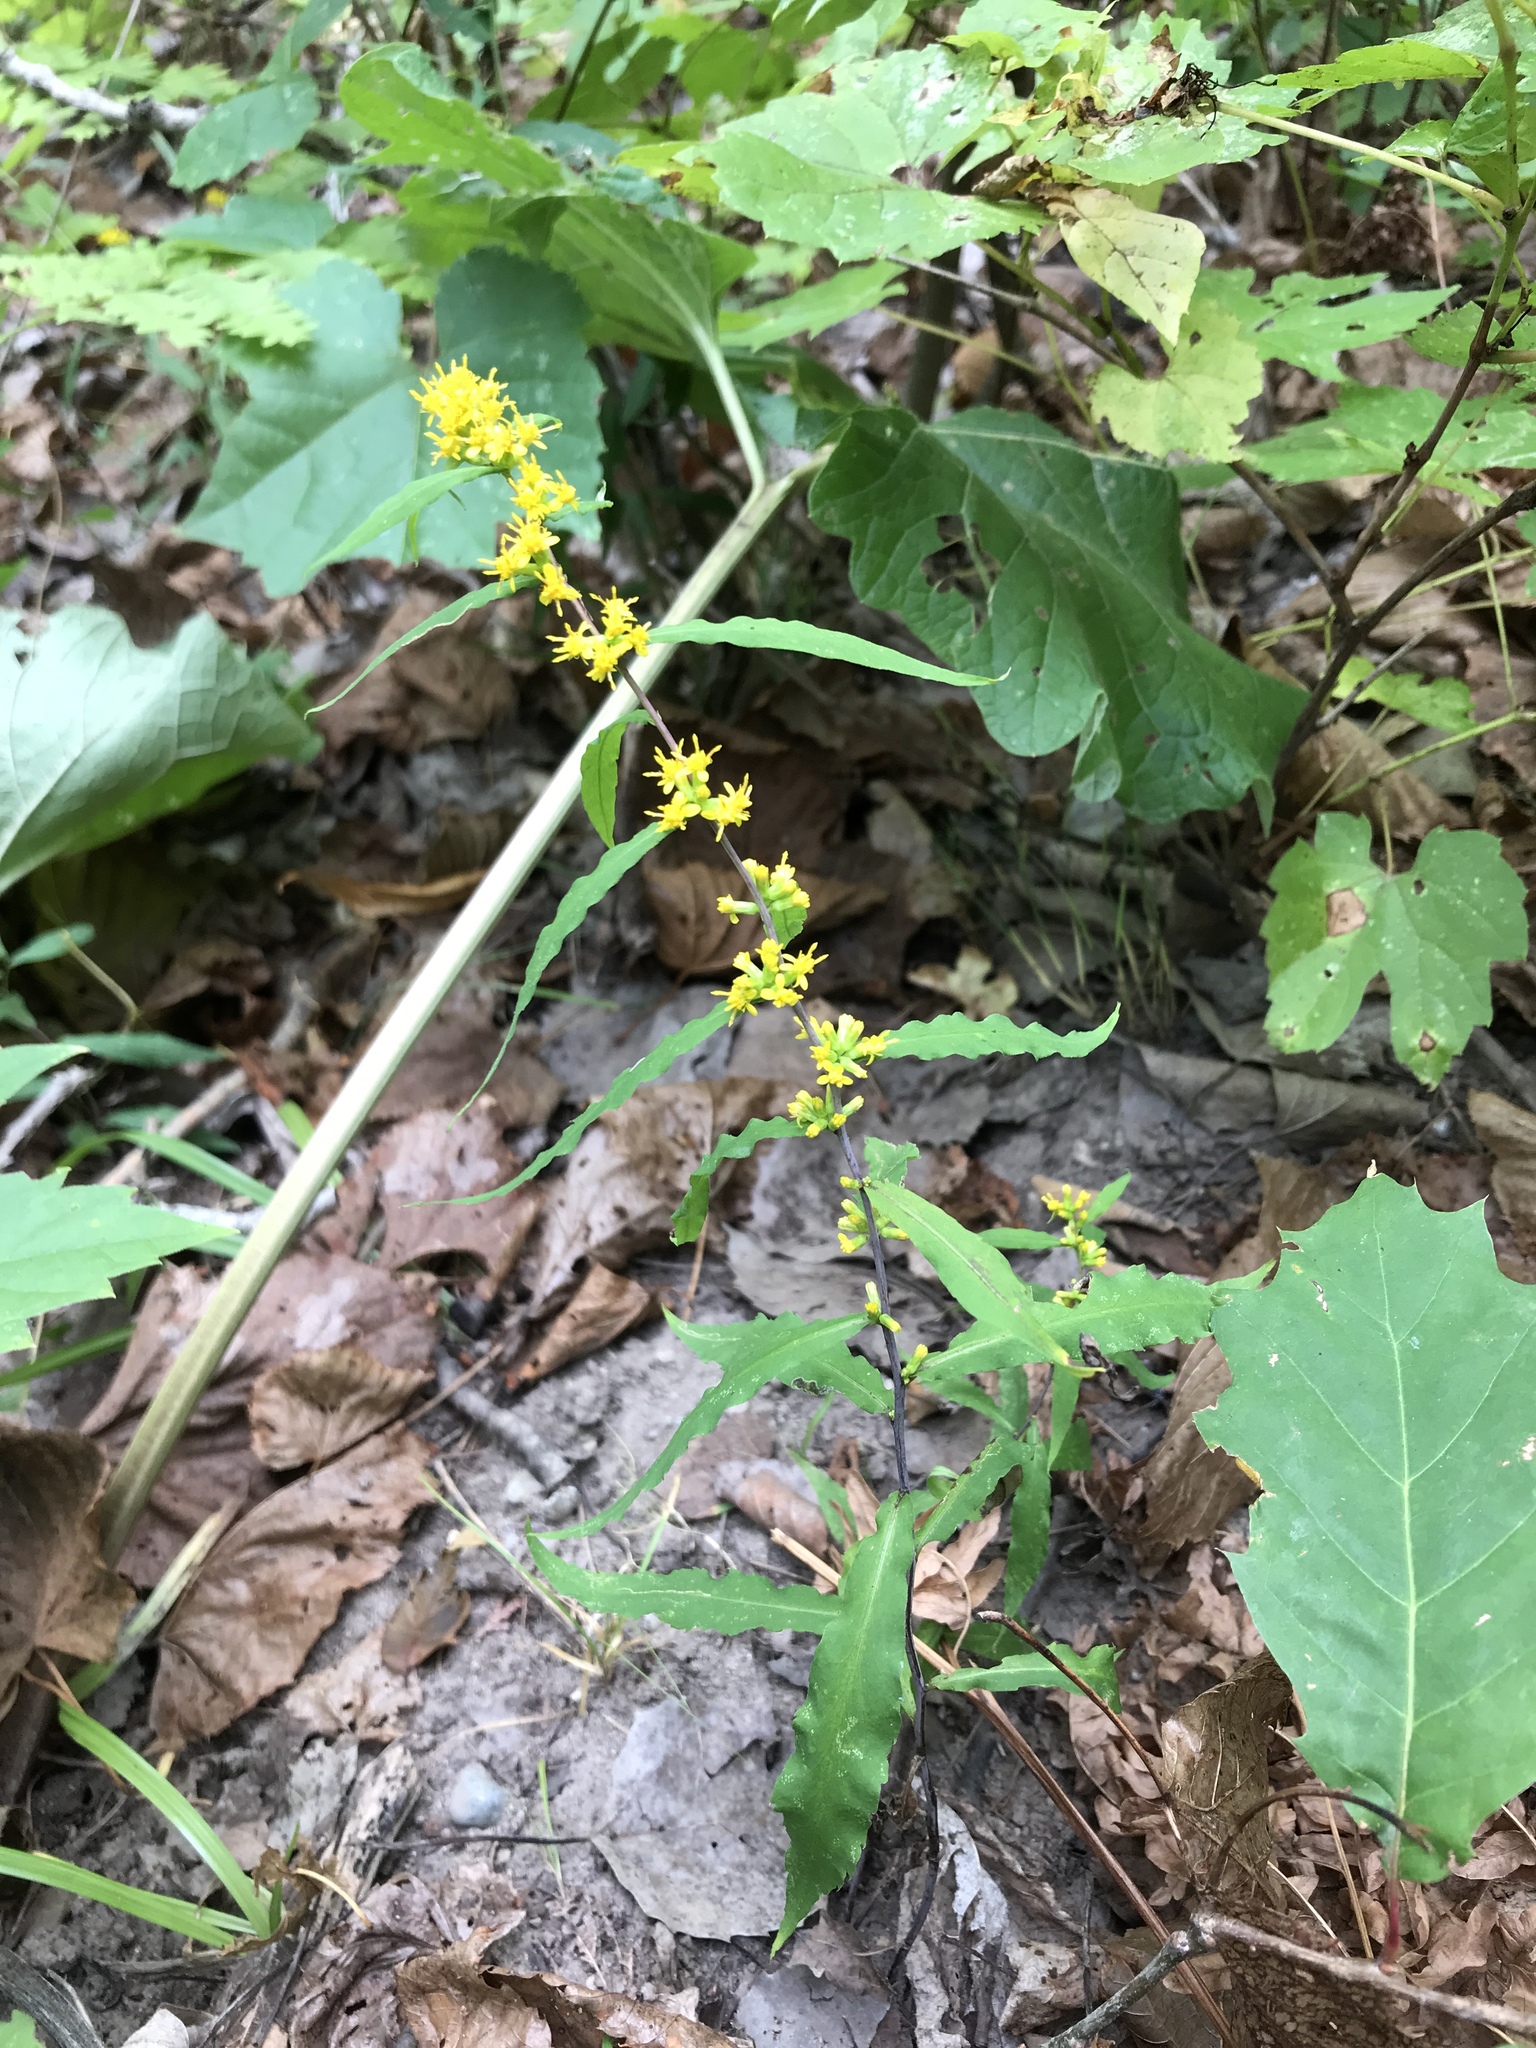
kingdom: Plantae
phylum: Tracheophyta
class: Magnoliopsida
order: Asterales
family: Asteraceae
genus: Solidago
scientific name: Solidago caesia
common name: Woodland goldenrod
